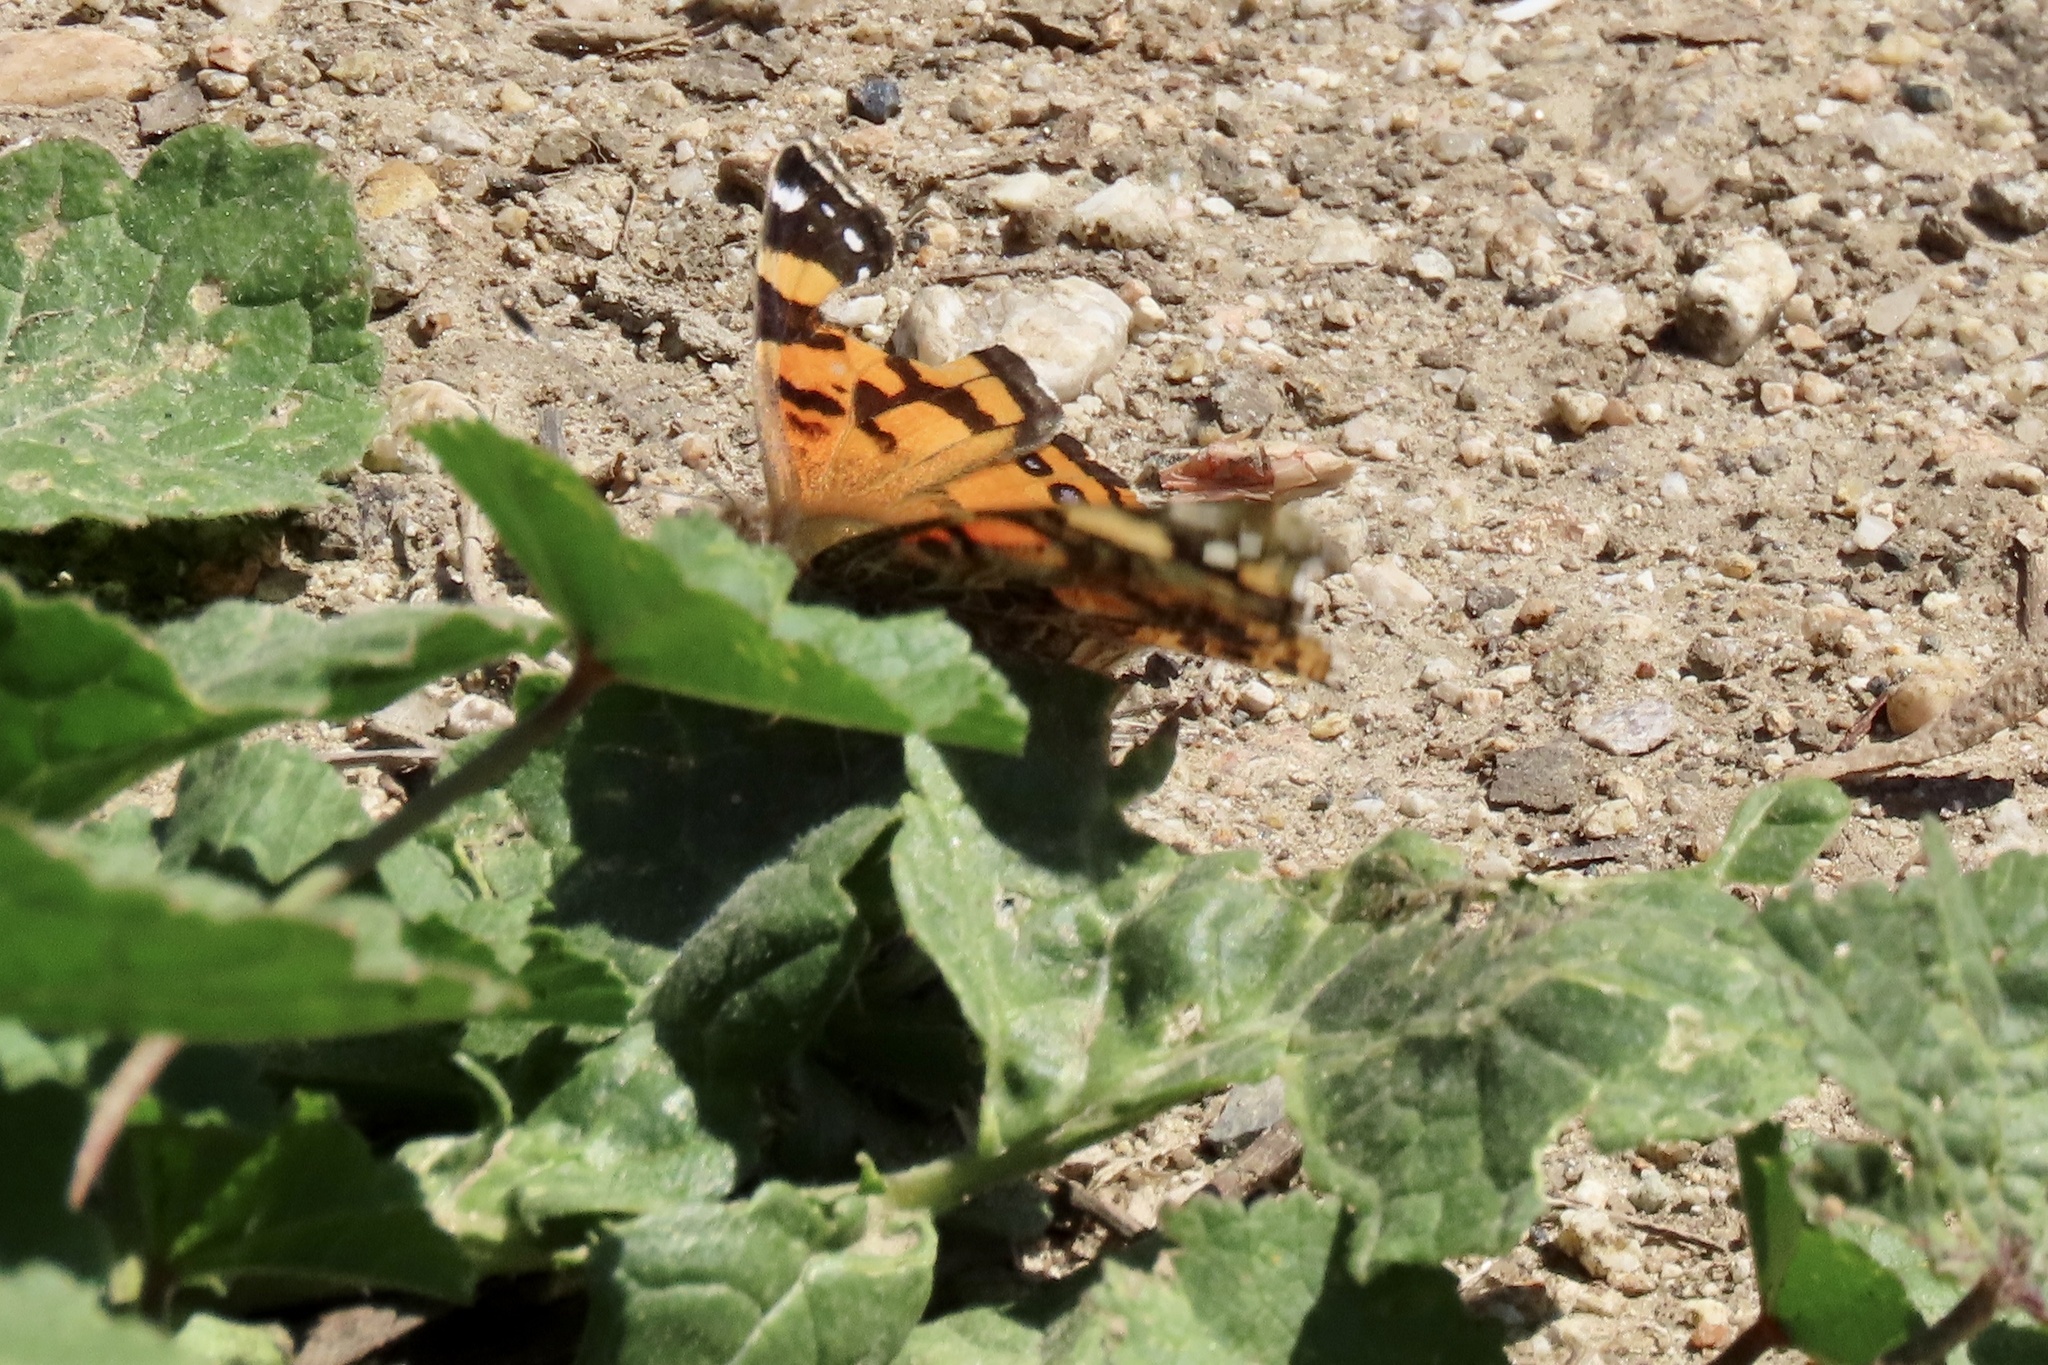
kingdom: Animalia
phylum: Arthropoda
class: Insecta
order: Lepidoptera
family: Nymphalidae
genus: Vanessa
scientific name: Vanessa annabella
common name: West coast lady
